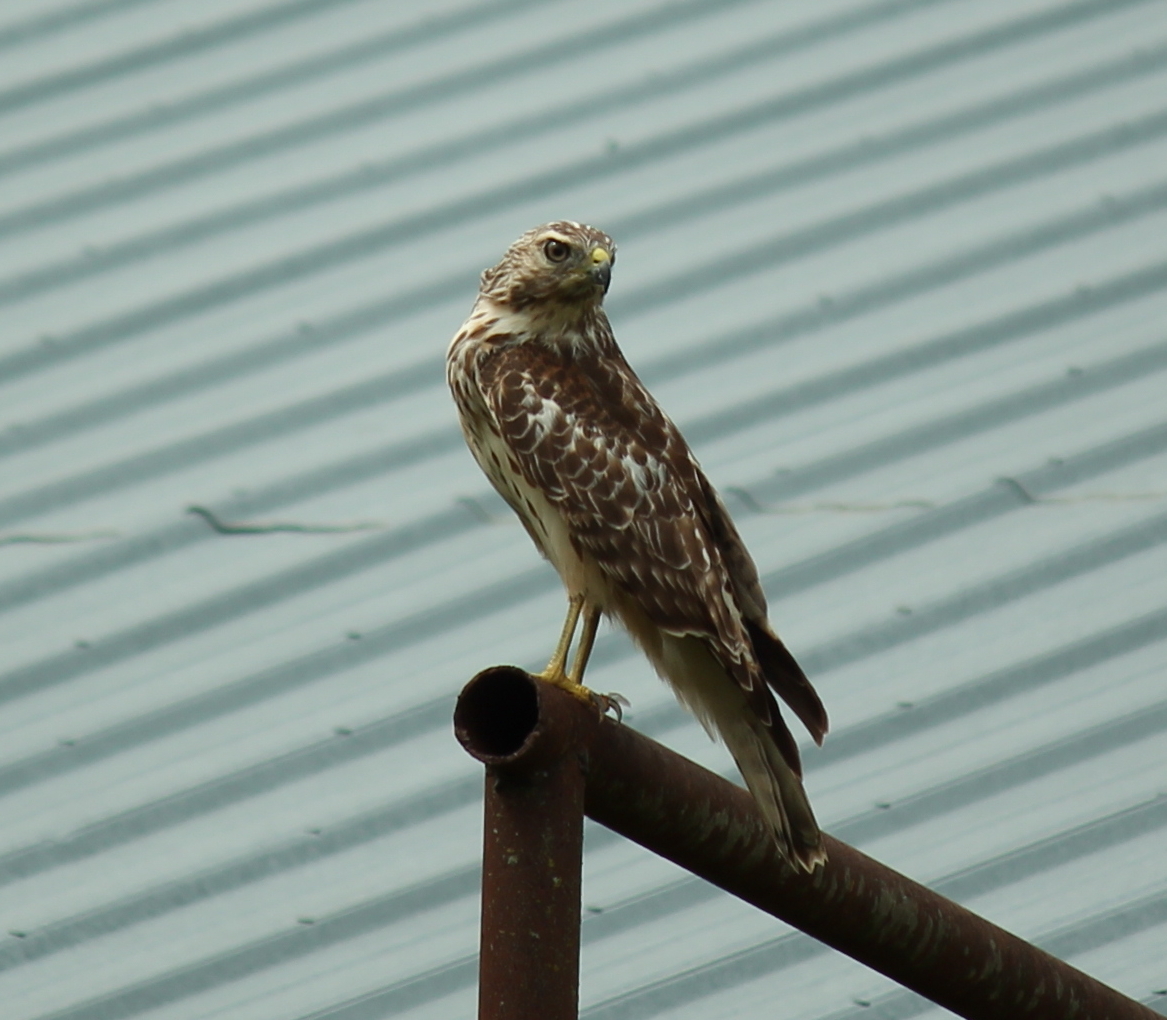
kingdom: Animalia
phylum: Chordata
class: Aves
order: Accipitriformes
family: Accipitridae
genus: Buteo
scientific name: Buteo lineatus
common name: Red-shouldered hawk
